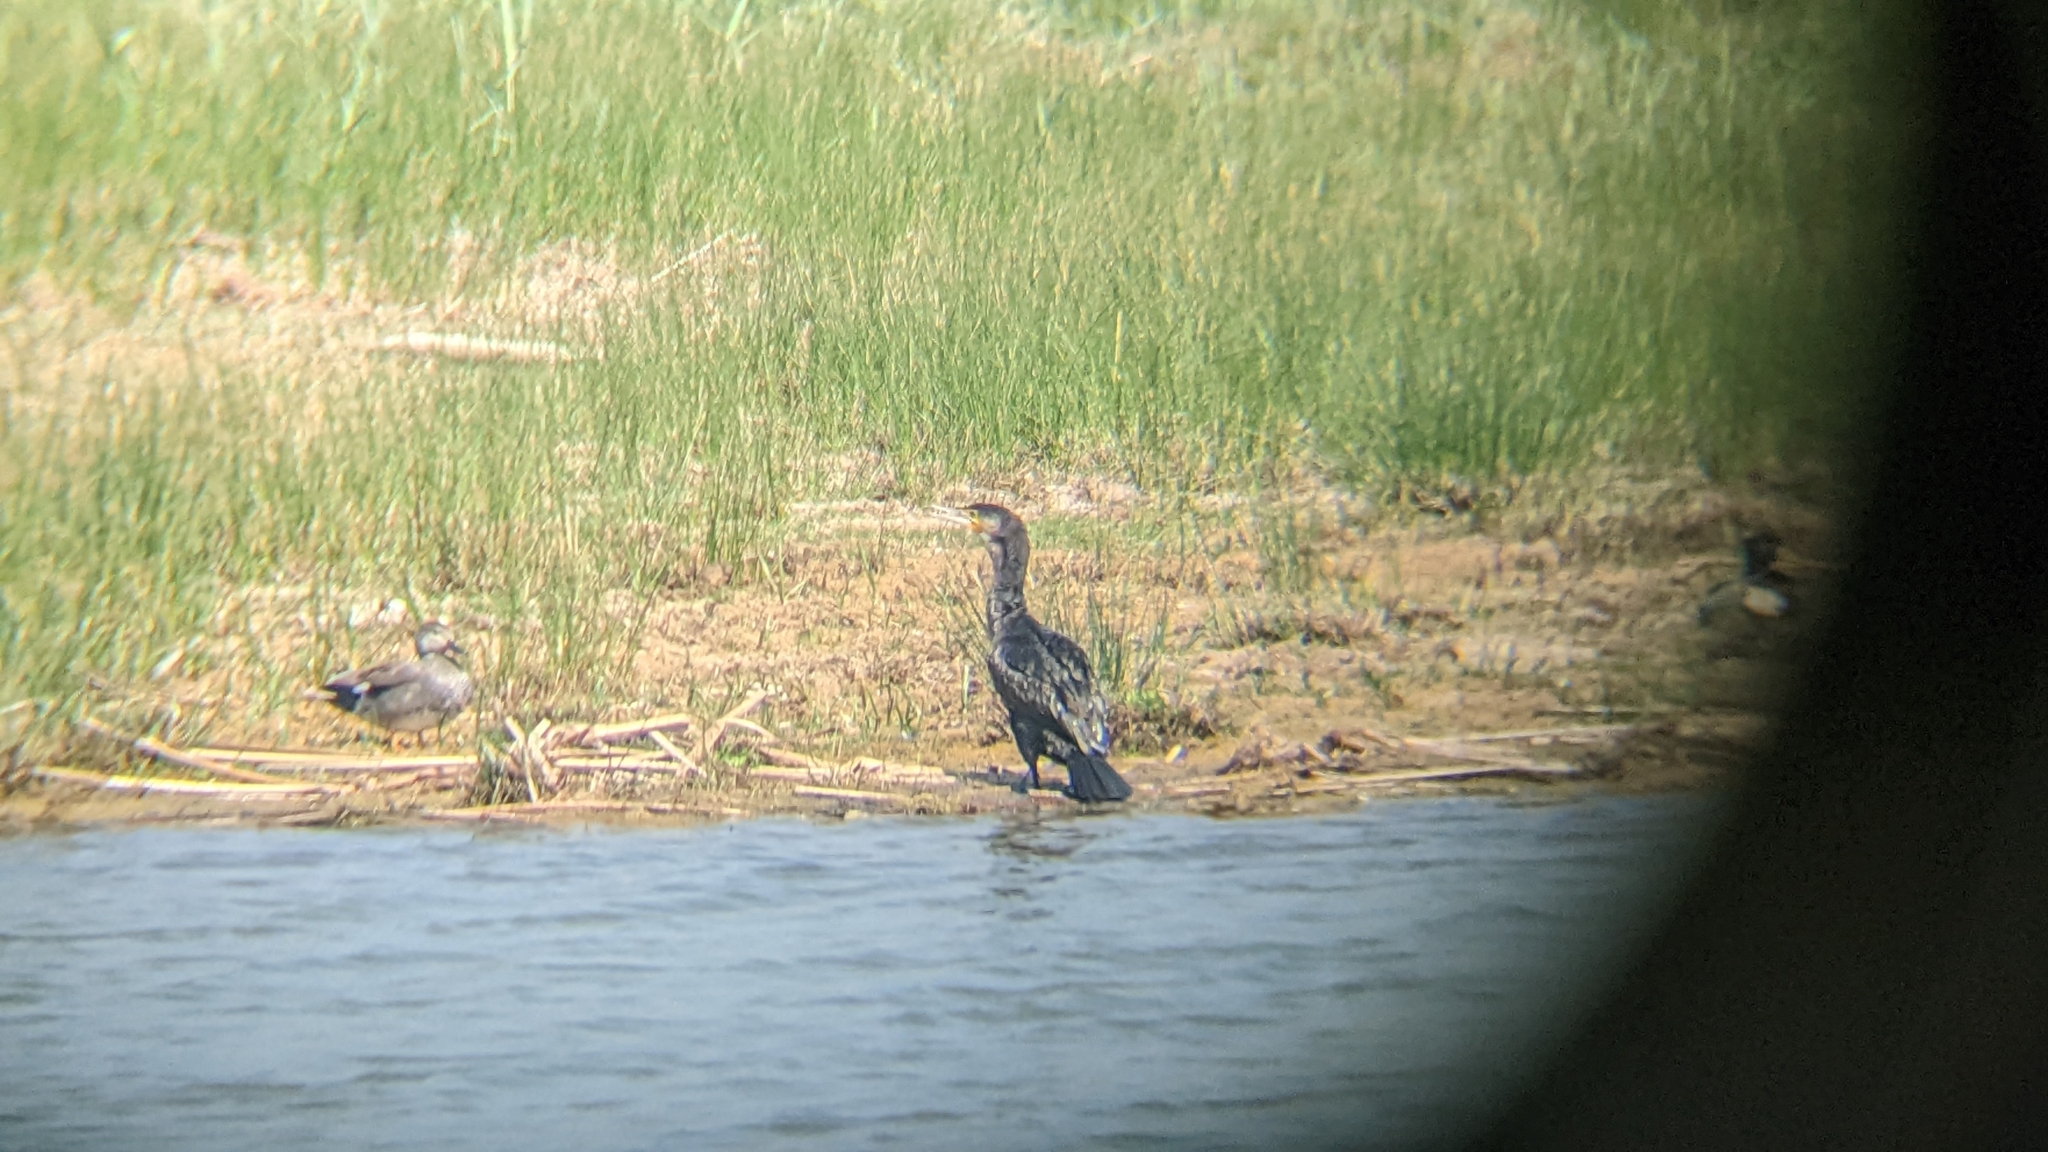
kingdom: Animalia
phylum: Chordata
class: Aves
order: Suliformes
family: Phalacrocoracidae
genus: Phalacrocorax
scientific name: Phalacrocorax carbo
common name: Great cormorant
